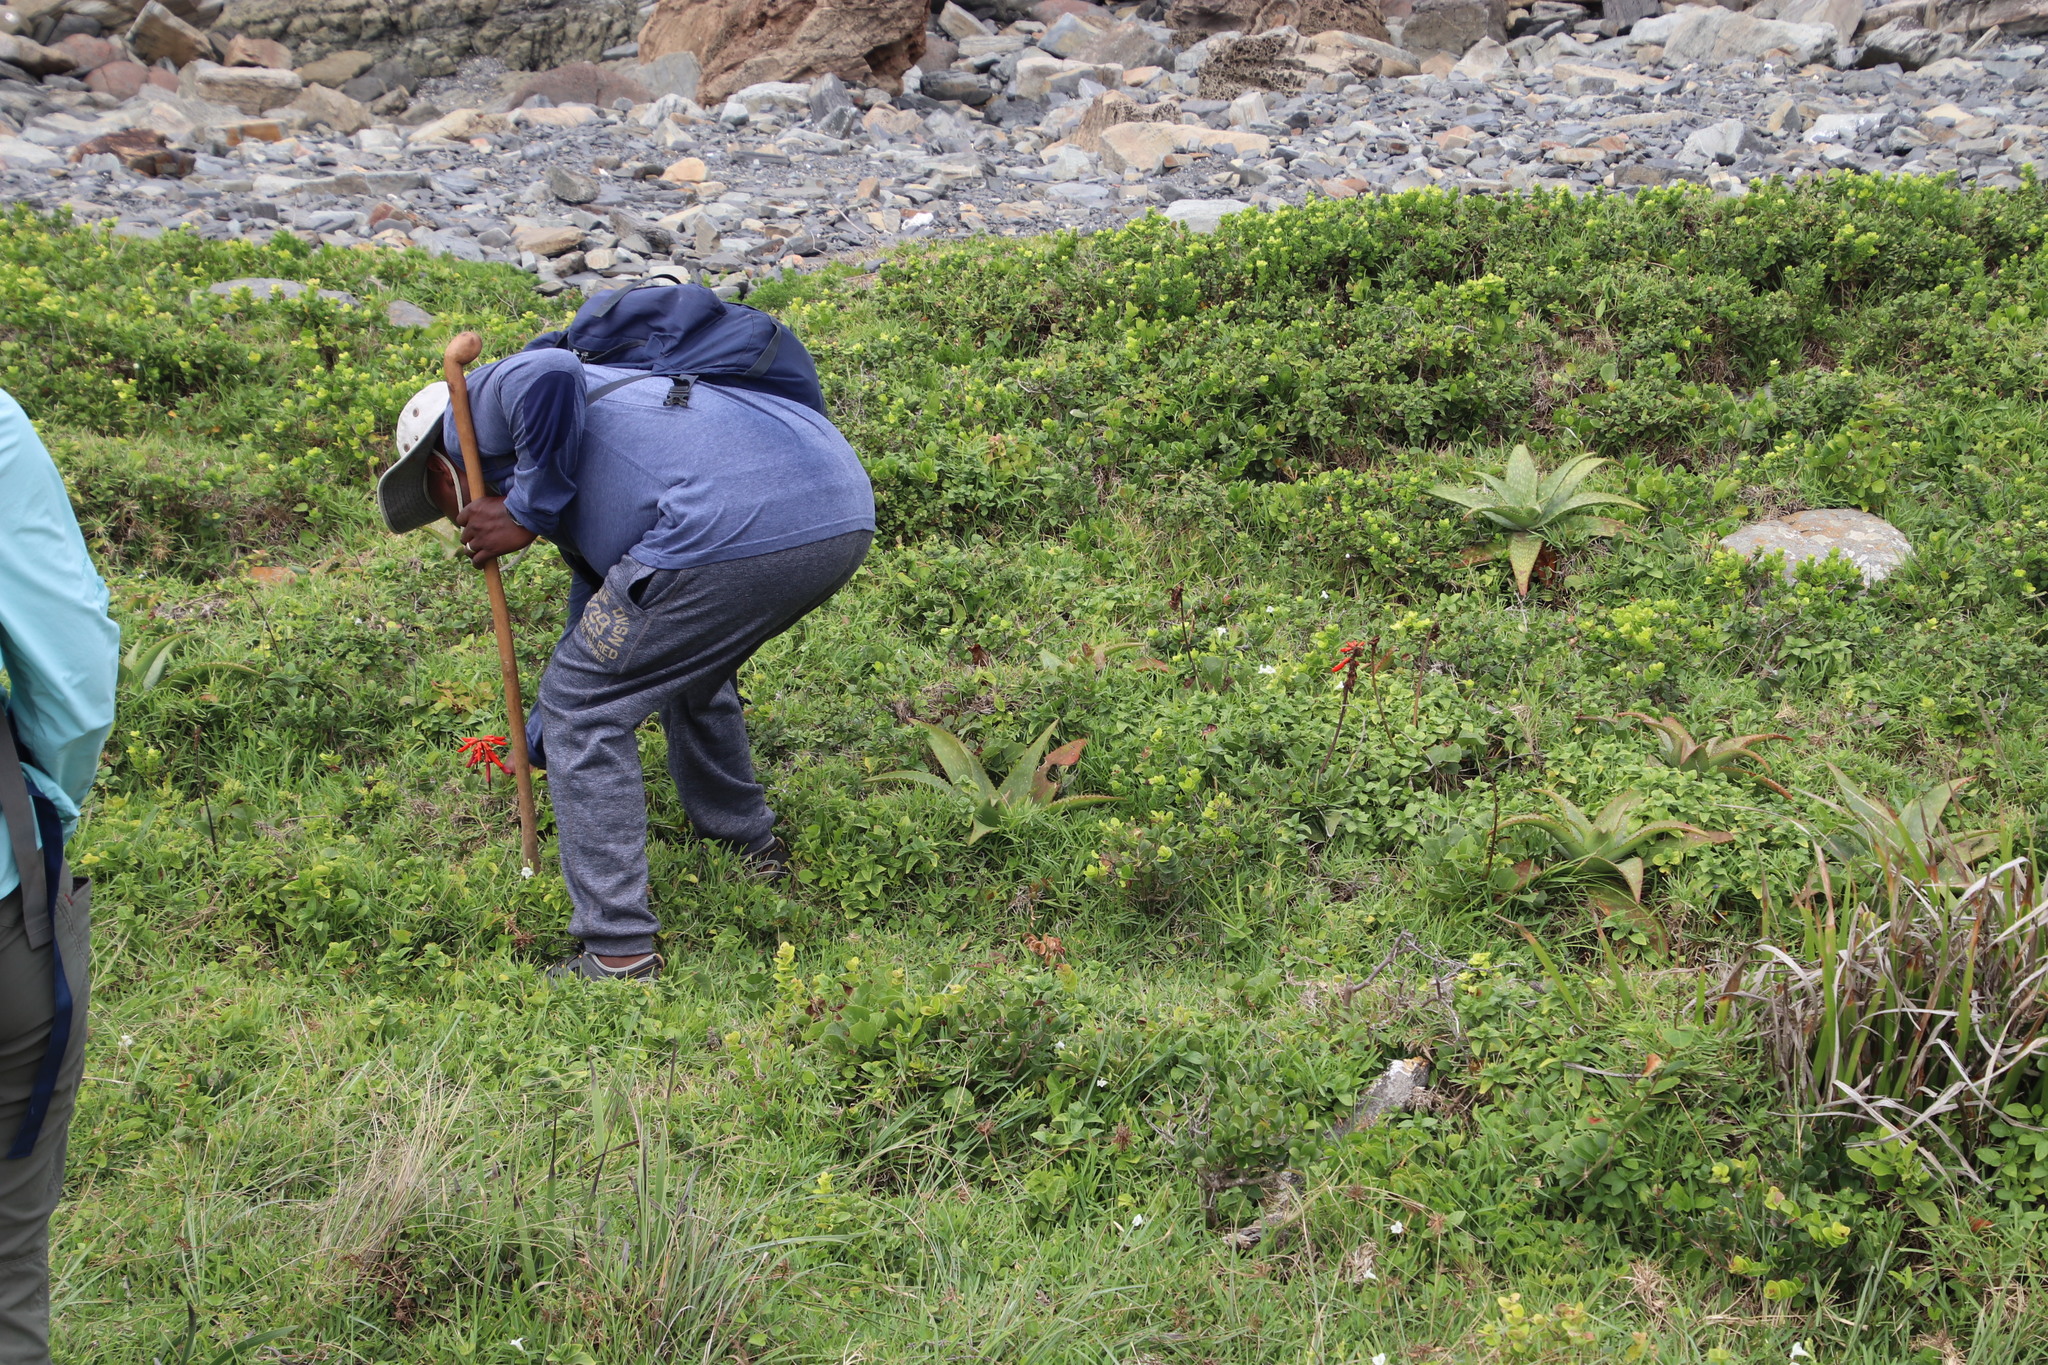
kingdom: Plantae
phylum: Tracheophyta
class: Magnoliopsida
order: Fabales
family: Fabaceae
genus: Erythrina
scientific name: Erythrina humeana
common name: Dwarf coral tree
